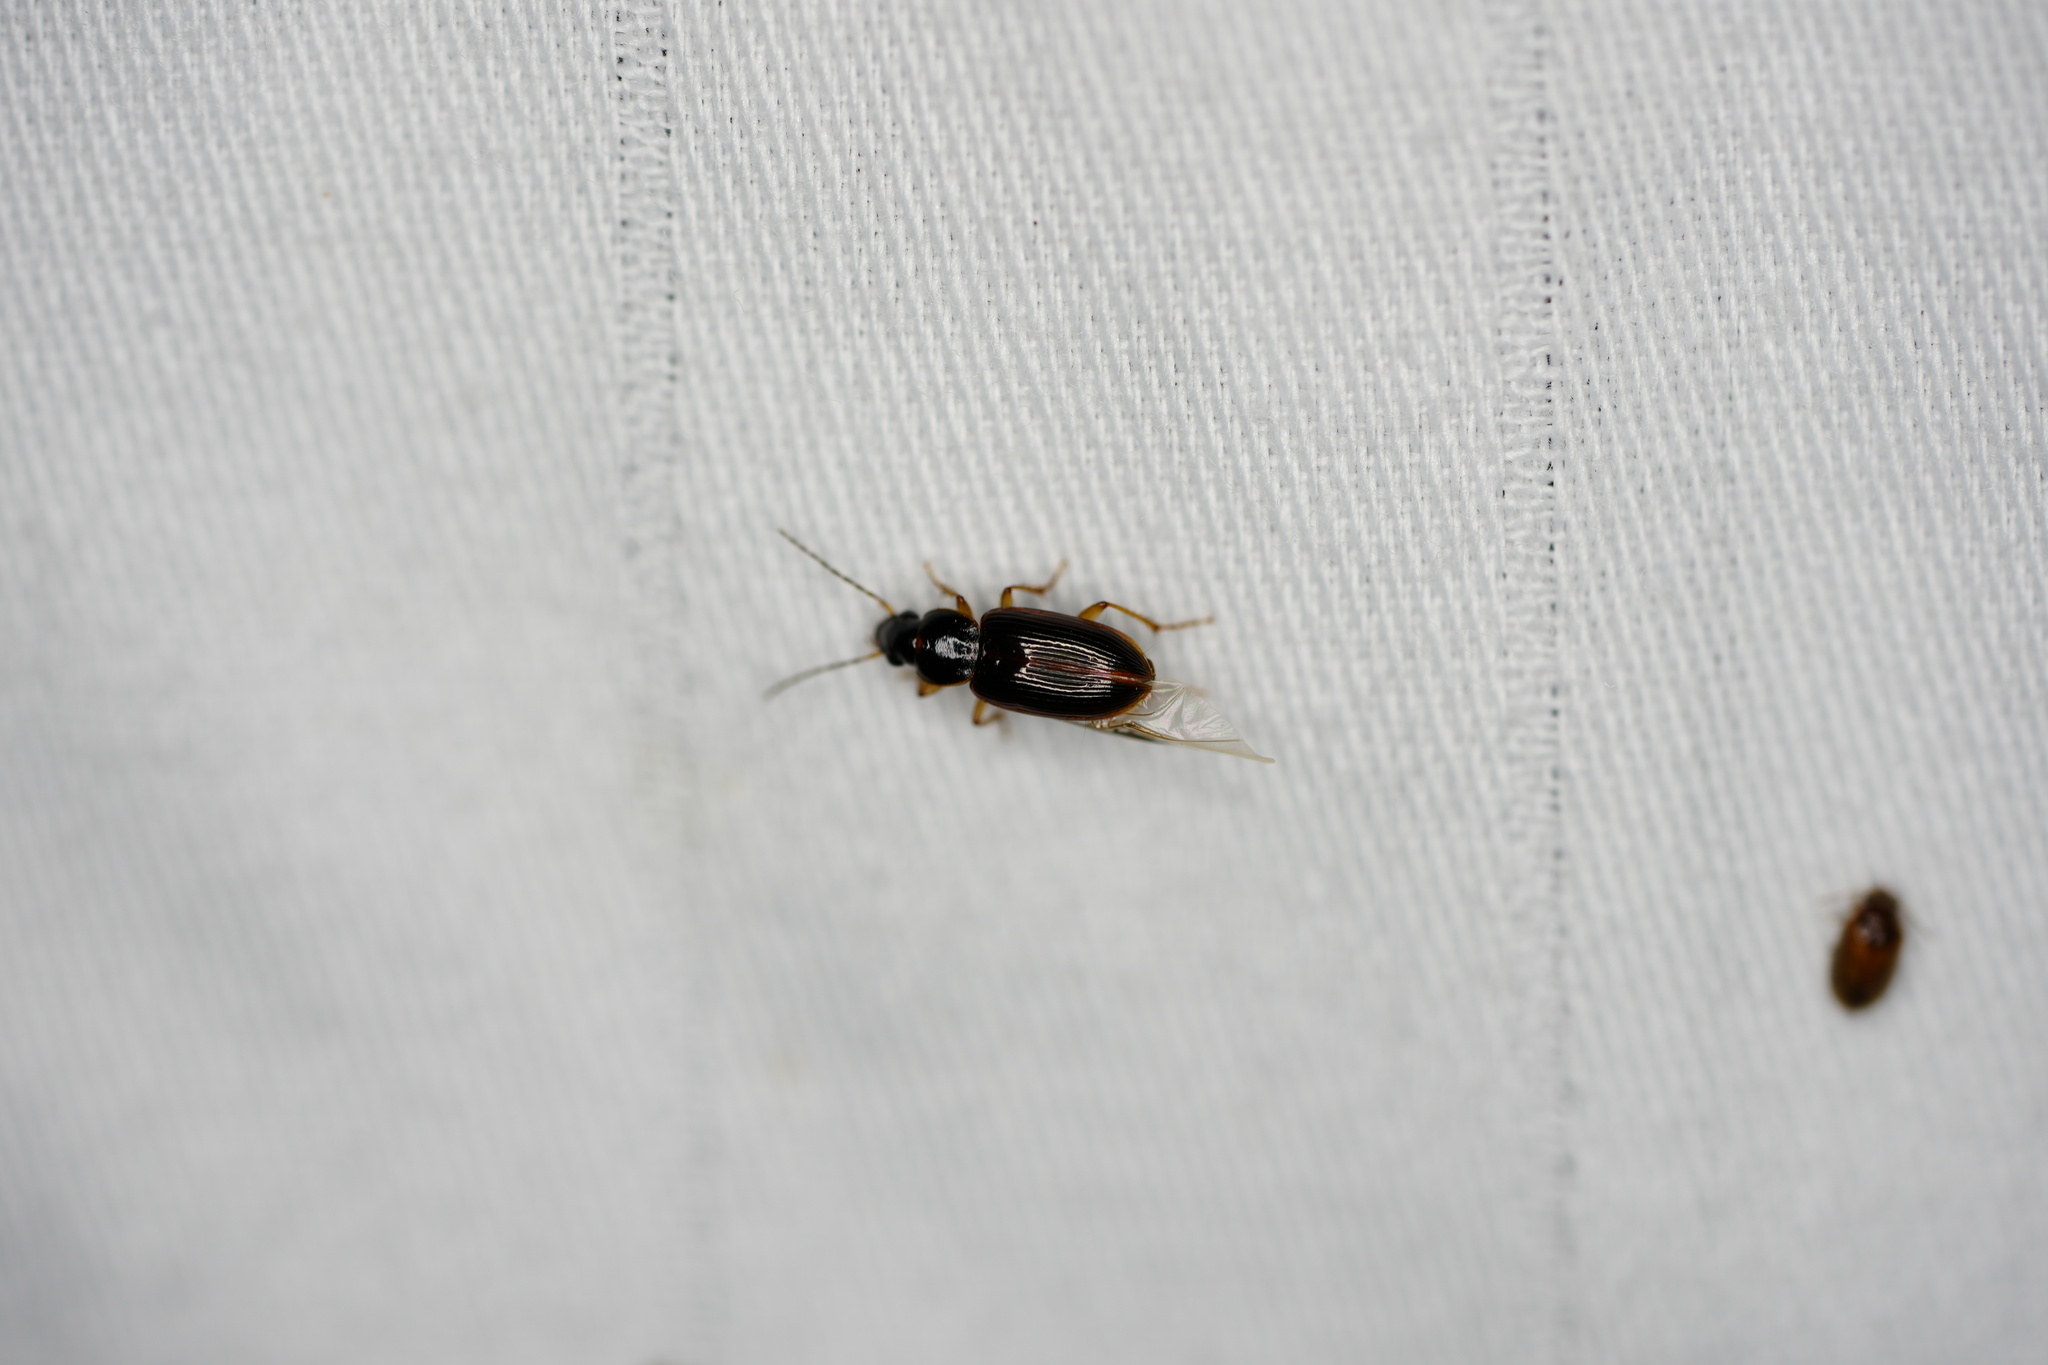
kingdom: Animalia
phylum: Arthropoda
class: Insecta
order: Coleoptera
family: Carabidae
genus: Stenolophus
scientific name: Stenolophus ochropezus
